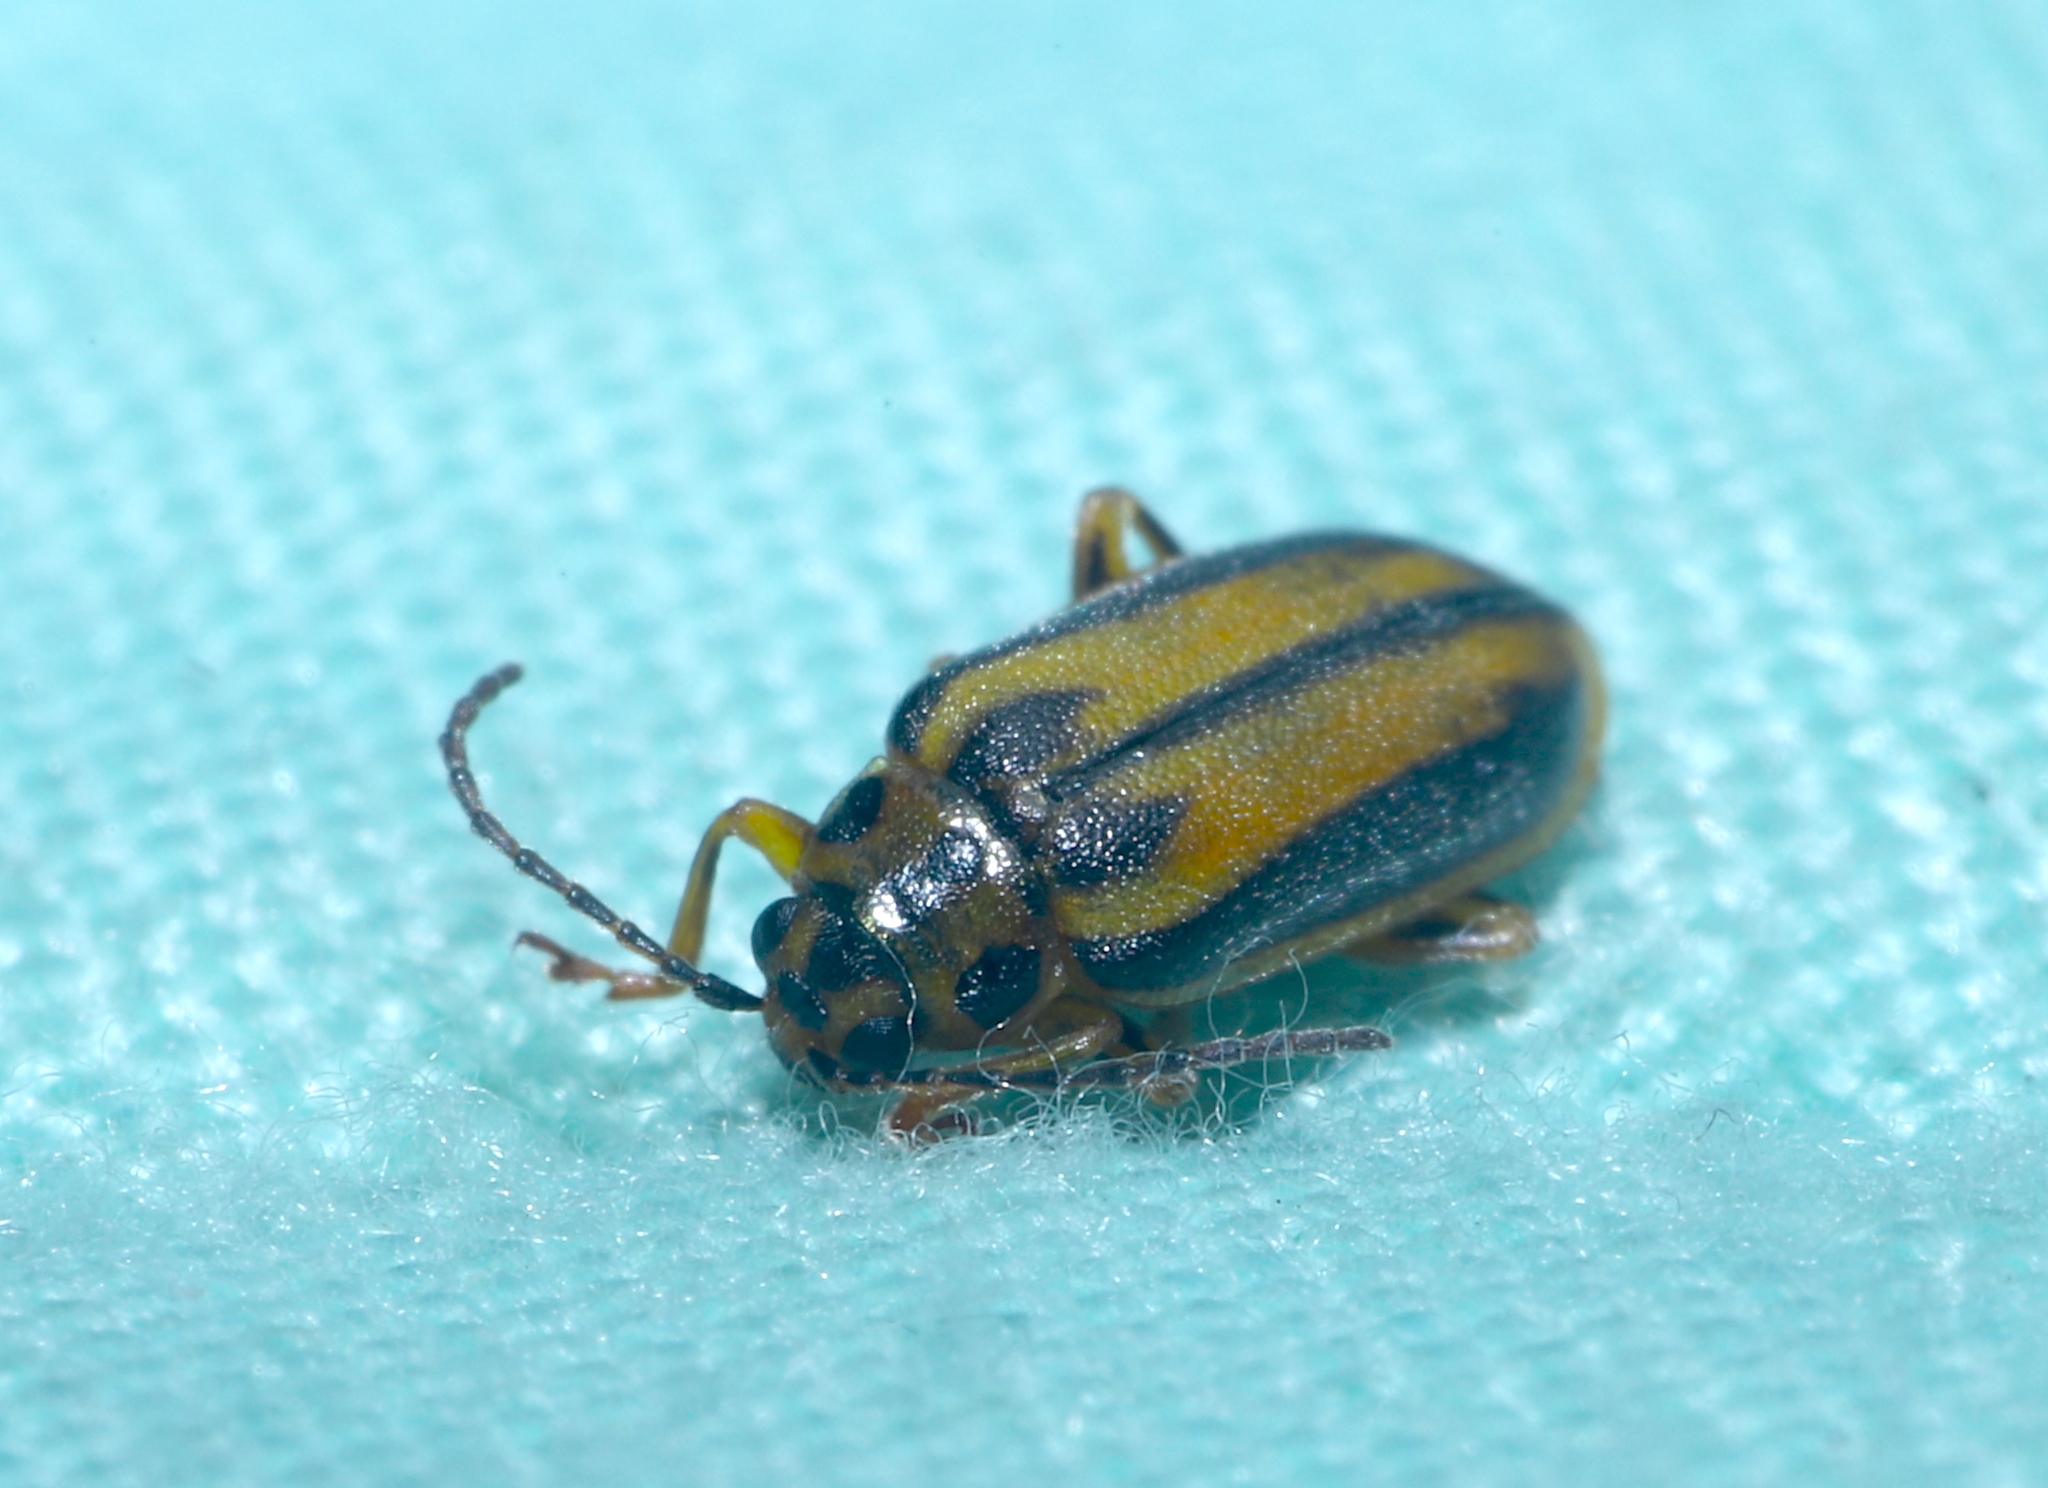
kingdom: Animalia
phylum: Arthropoda
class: Insecta
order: Coleoptera
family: Chrysomelidae
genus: Xanthogaleruca
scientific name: Xanthogaleruca luteola
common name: Elm leaf beetle
